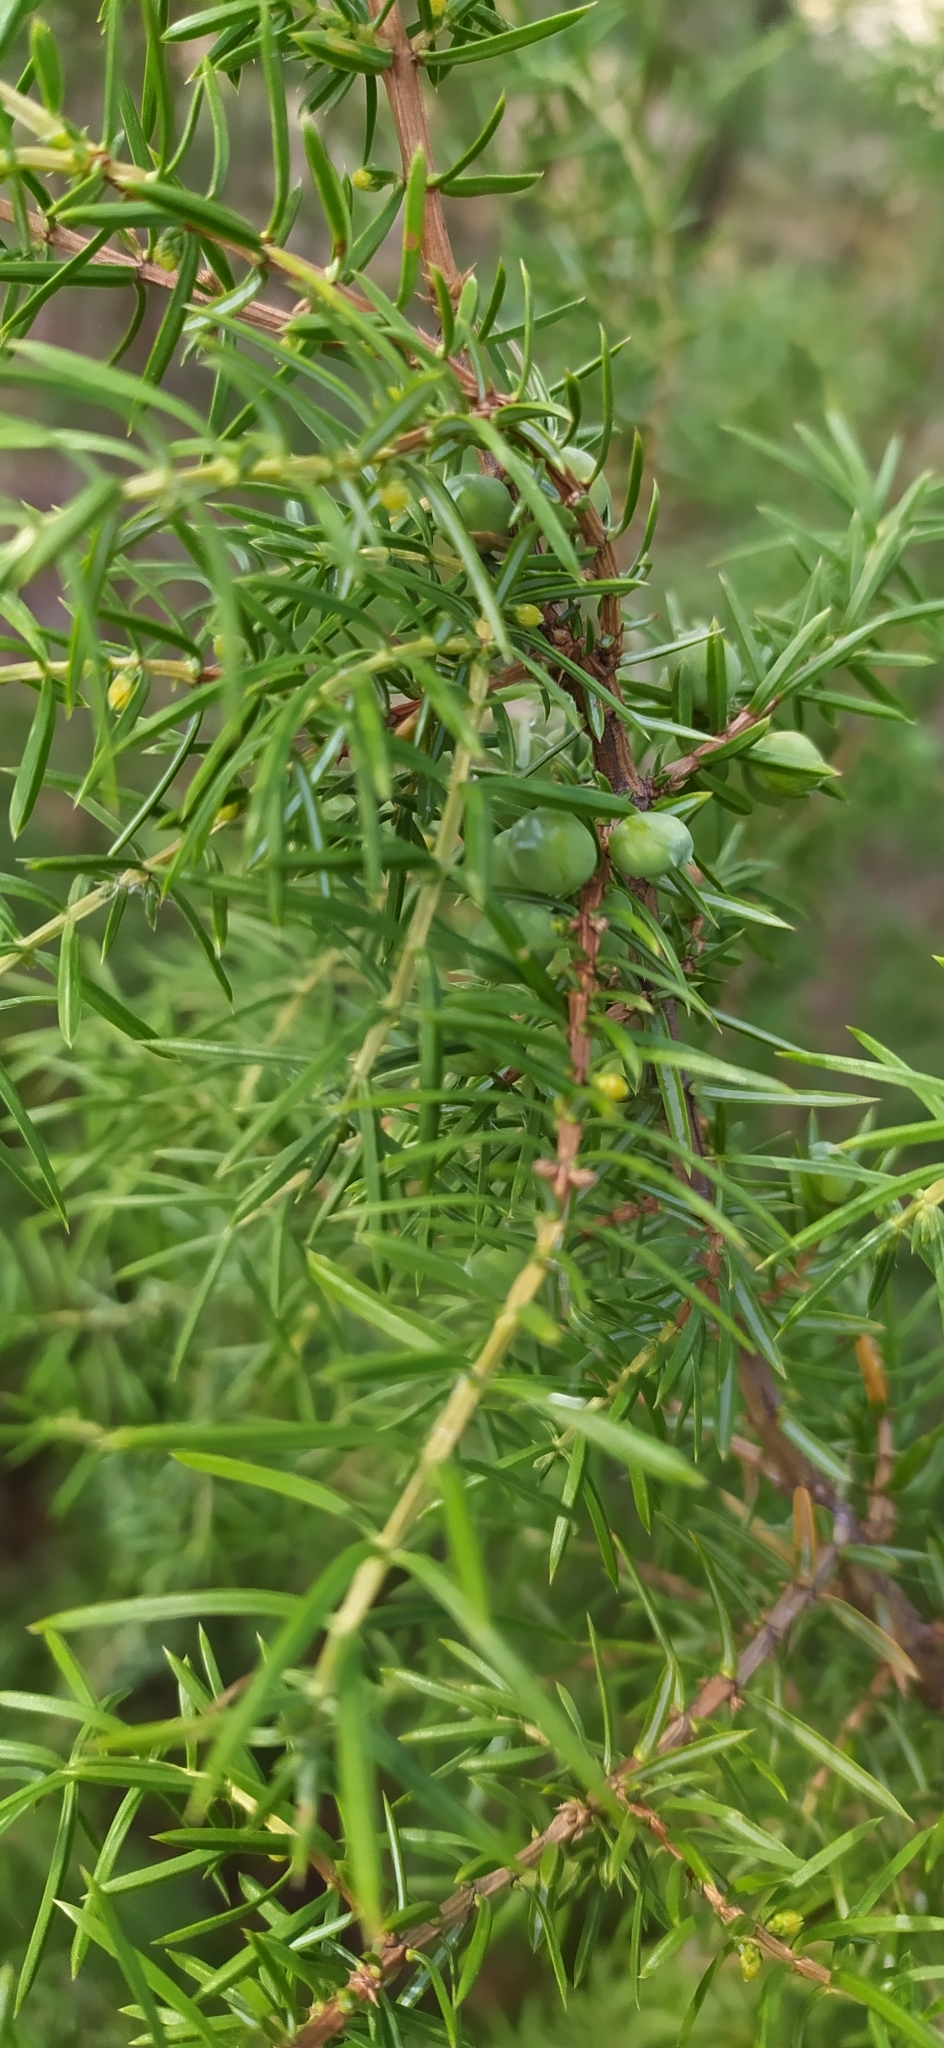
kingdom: Plantae
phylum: Tracheophyta
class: Pinopsida
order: Pinales
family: Cupressaceae
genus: Juniperus
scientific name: Juniperus communis
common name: Common juniper
